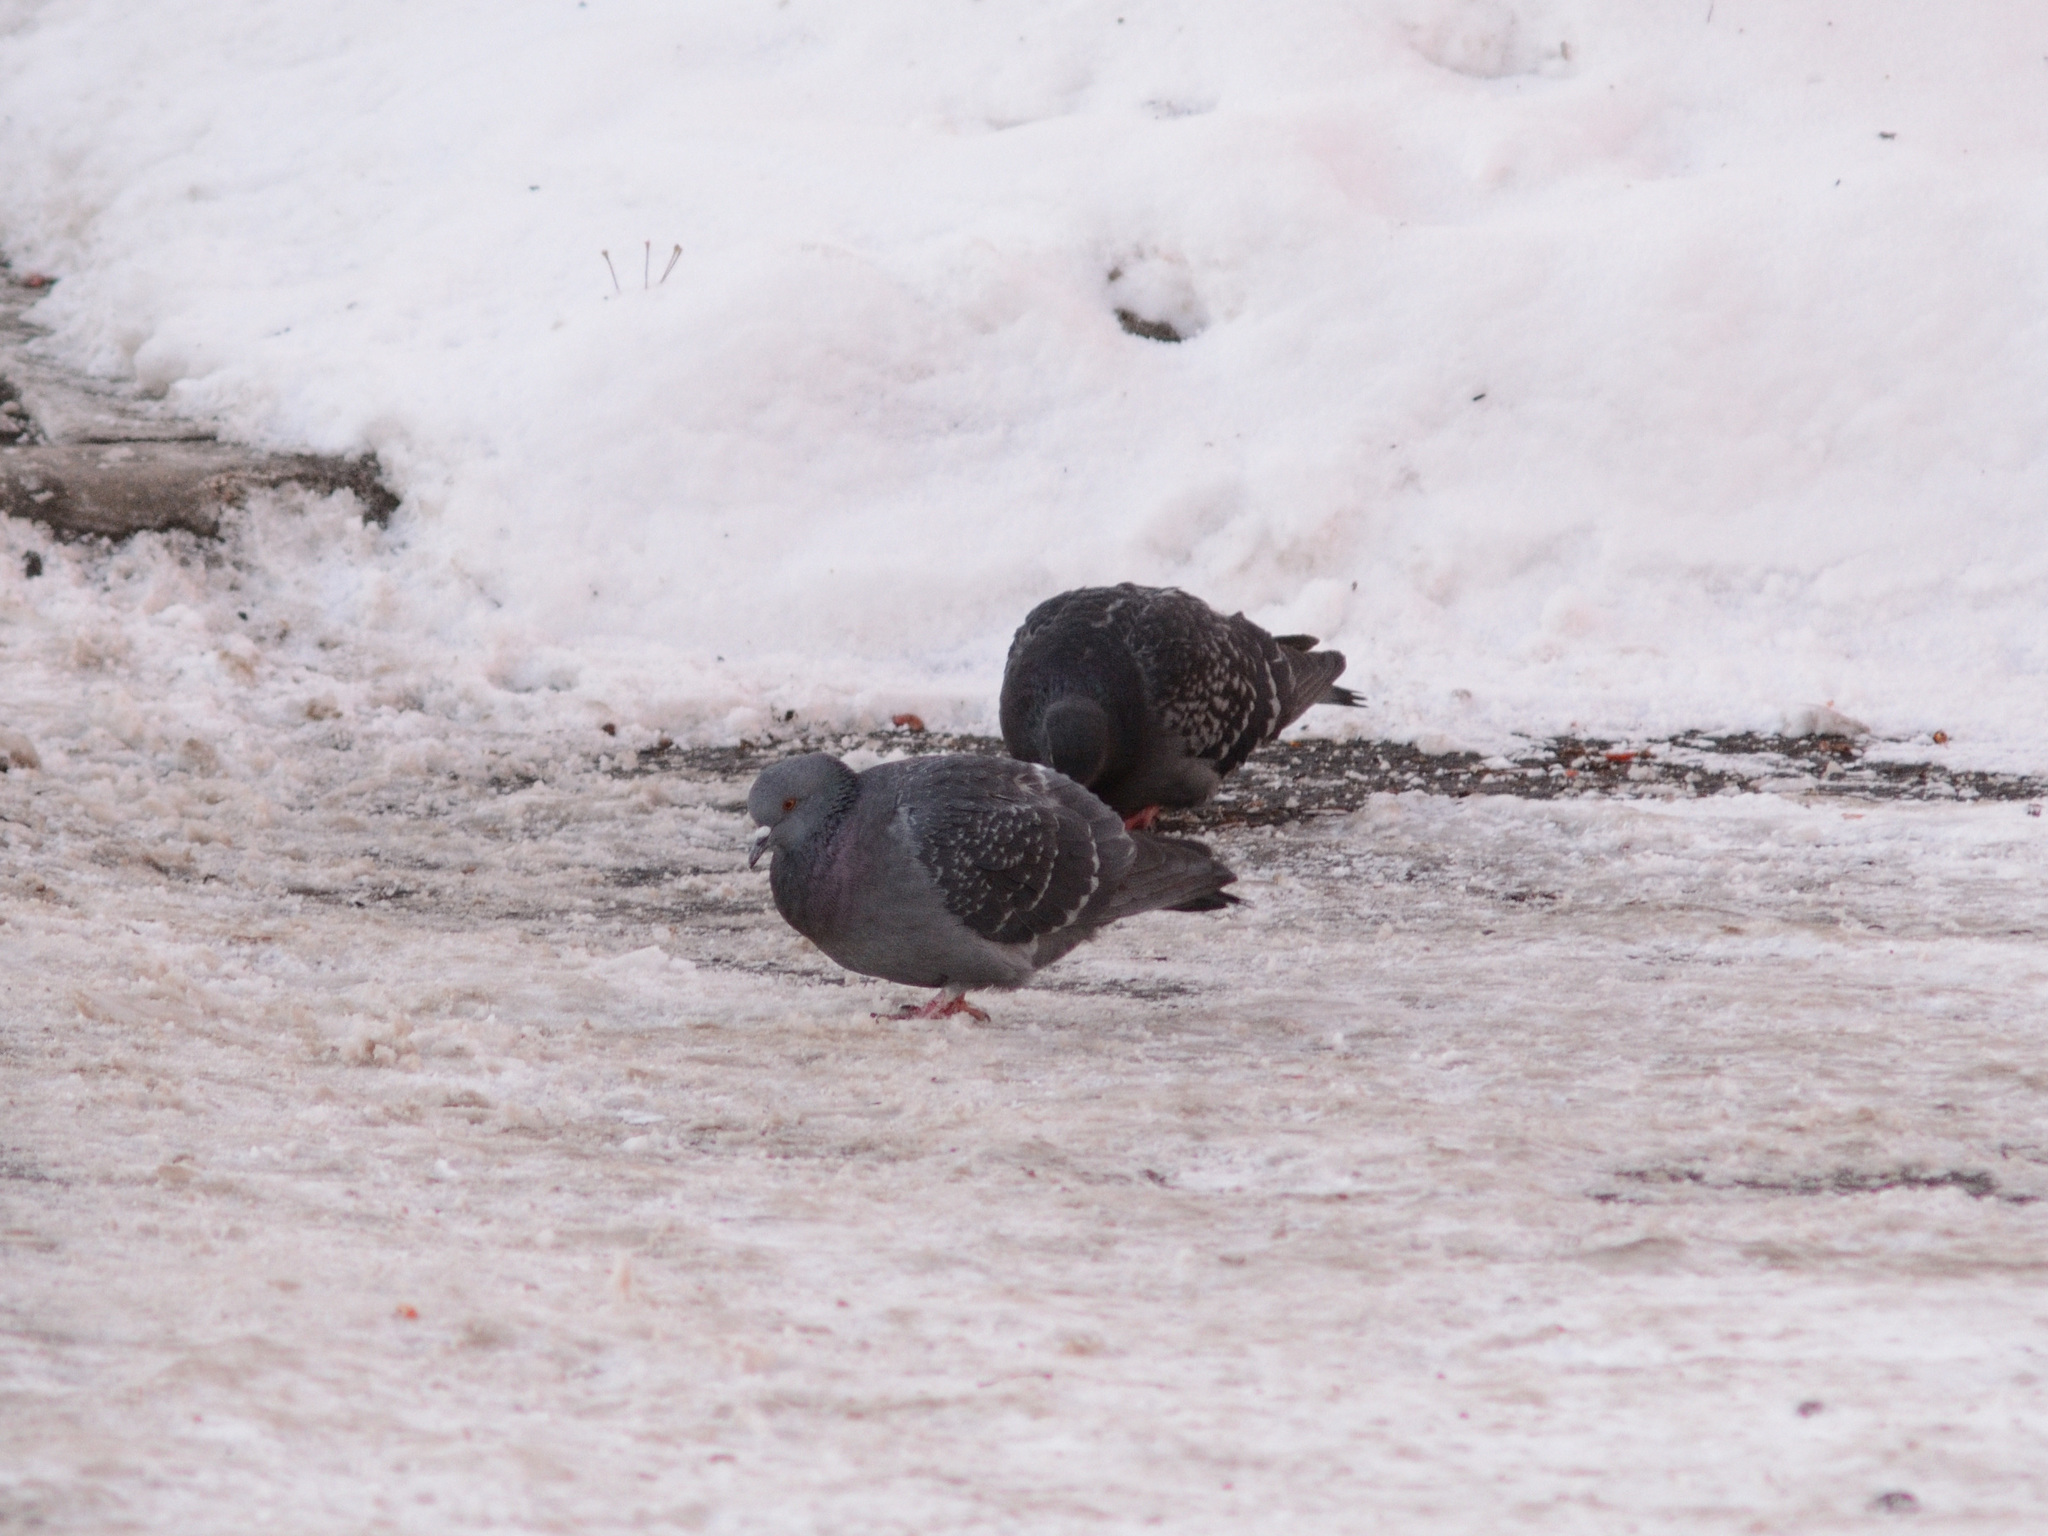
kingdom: Animalia
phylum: Chordata
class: Aves
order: Columbiformes
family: Columbidae
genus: Columba
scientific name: Columba livia
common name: Rock pigeon
